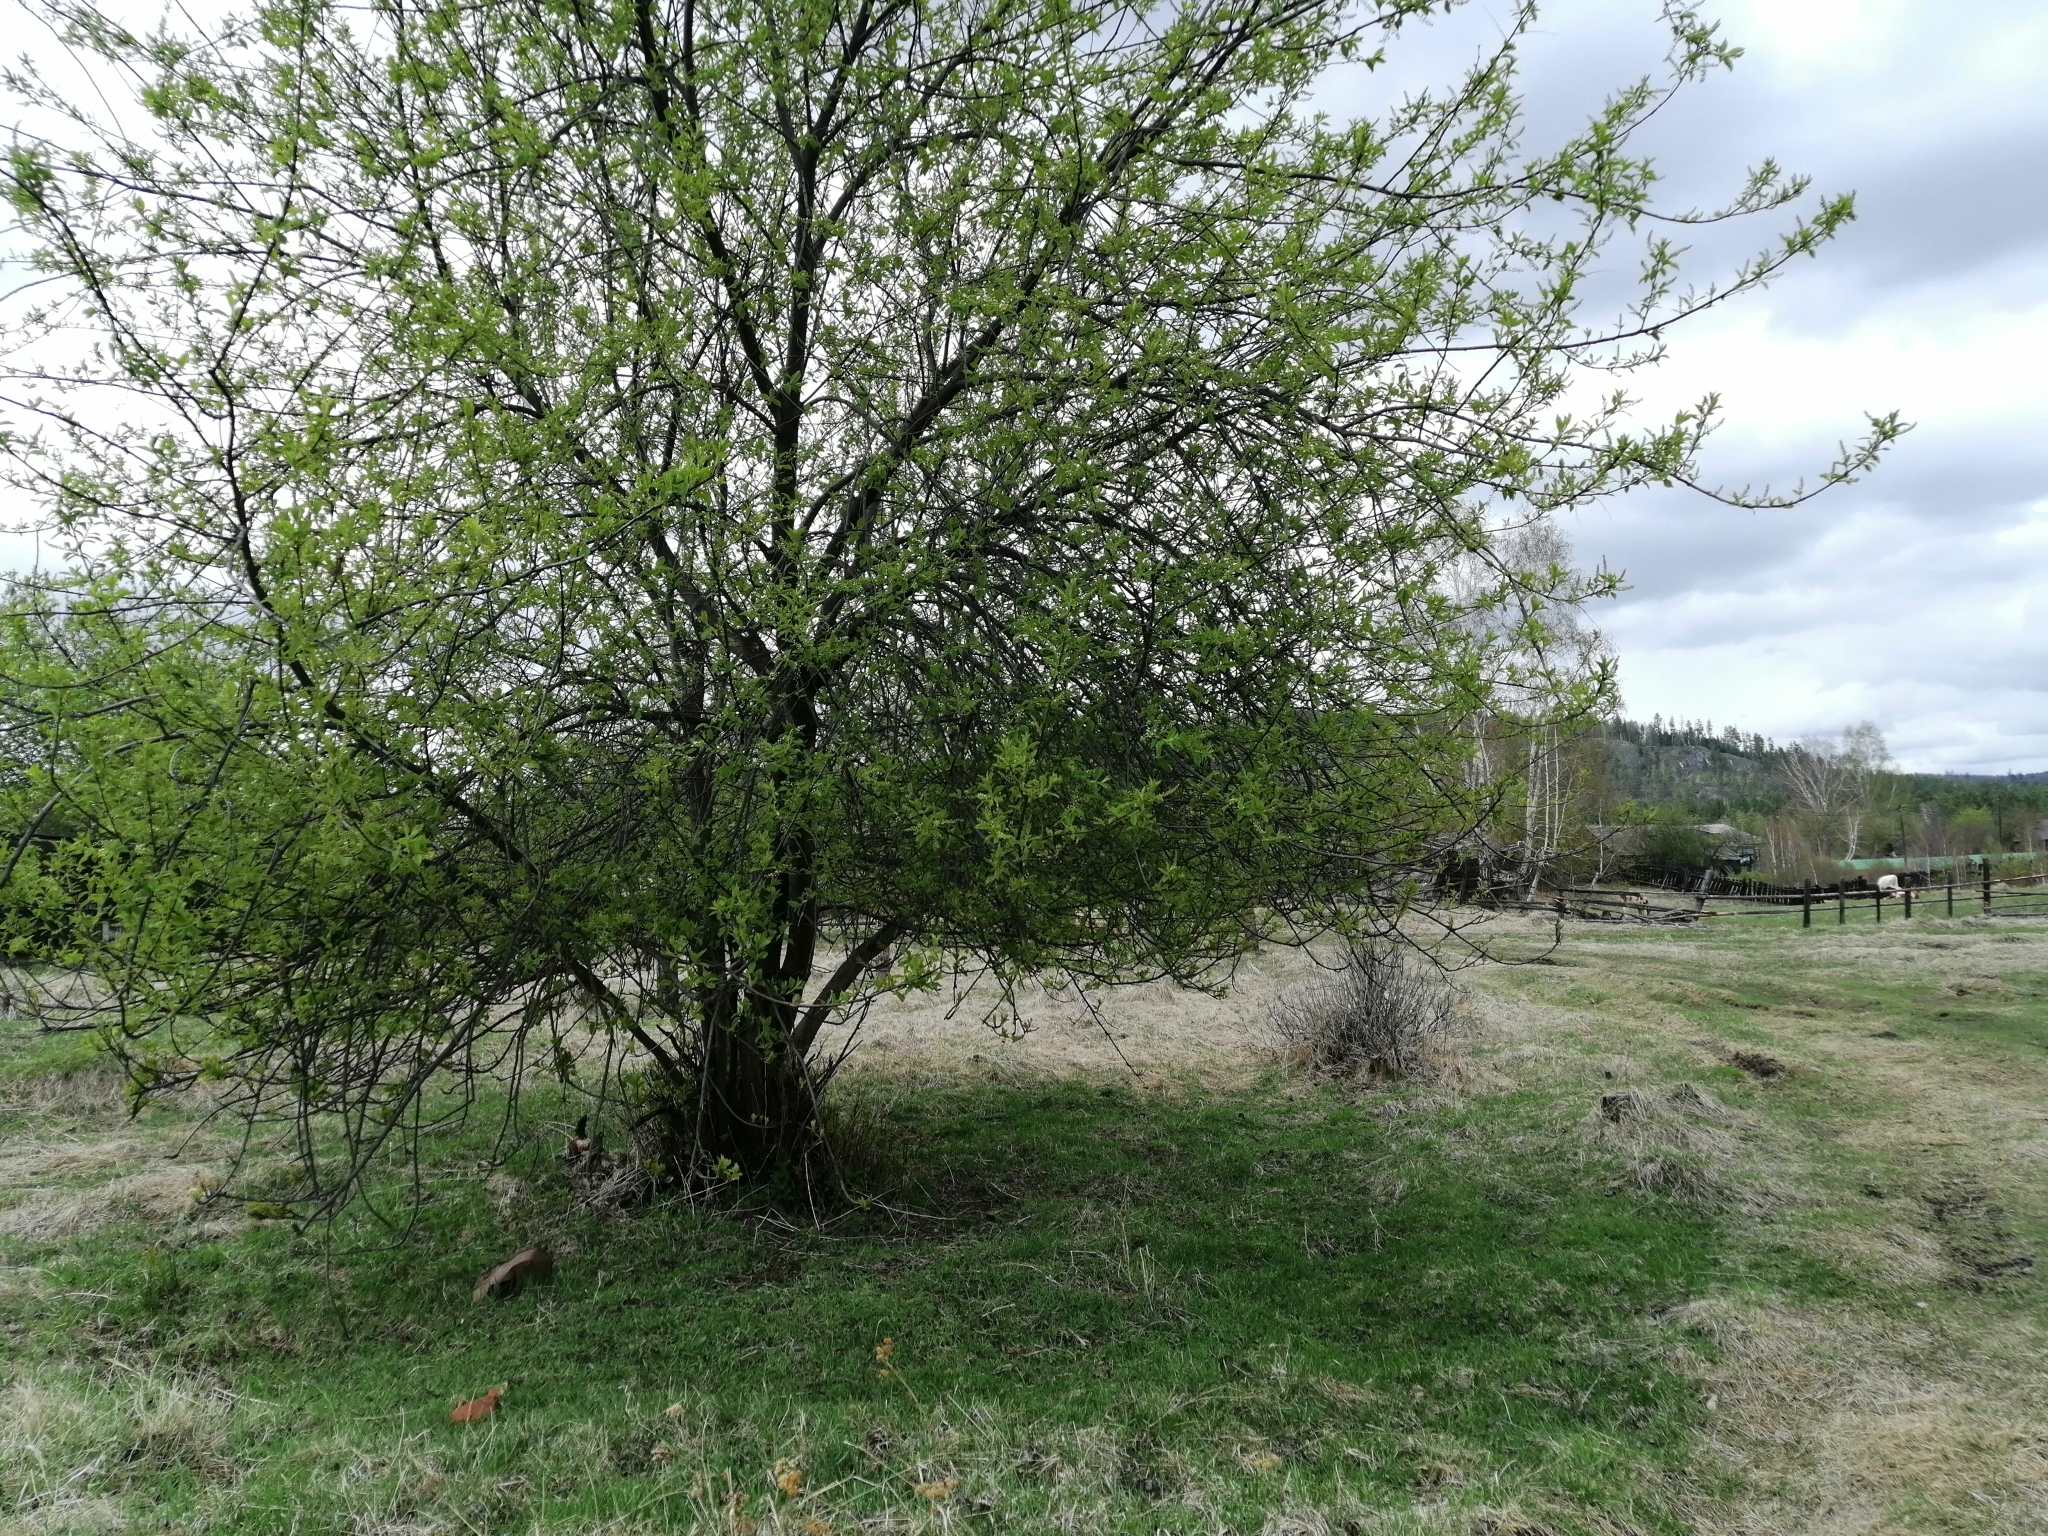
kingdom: Plantae
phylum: Tracheophyta
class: Magnoliopsida
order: Rosales
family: Rosaceae
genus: Prunus
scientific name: Prunus padus
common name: Bird cherry
